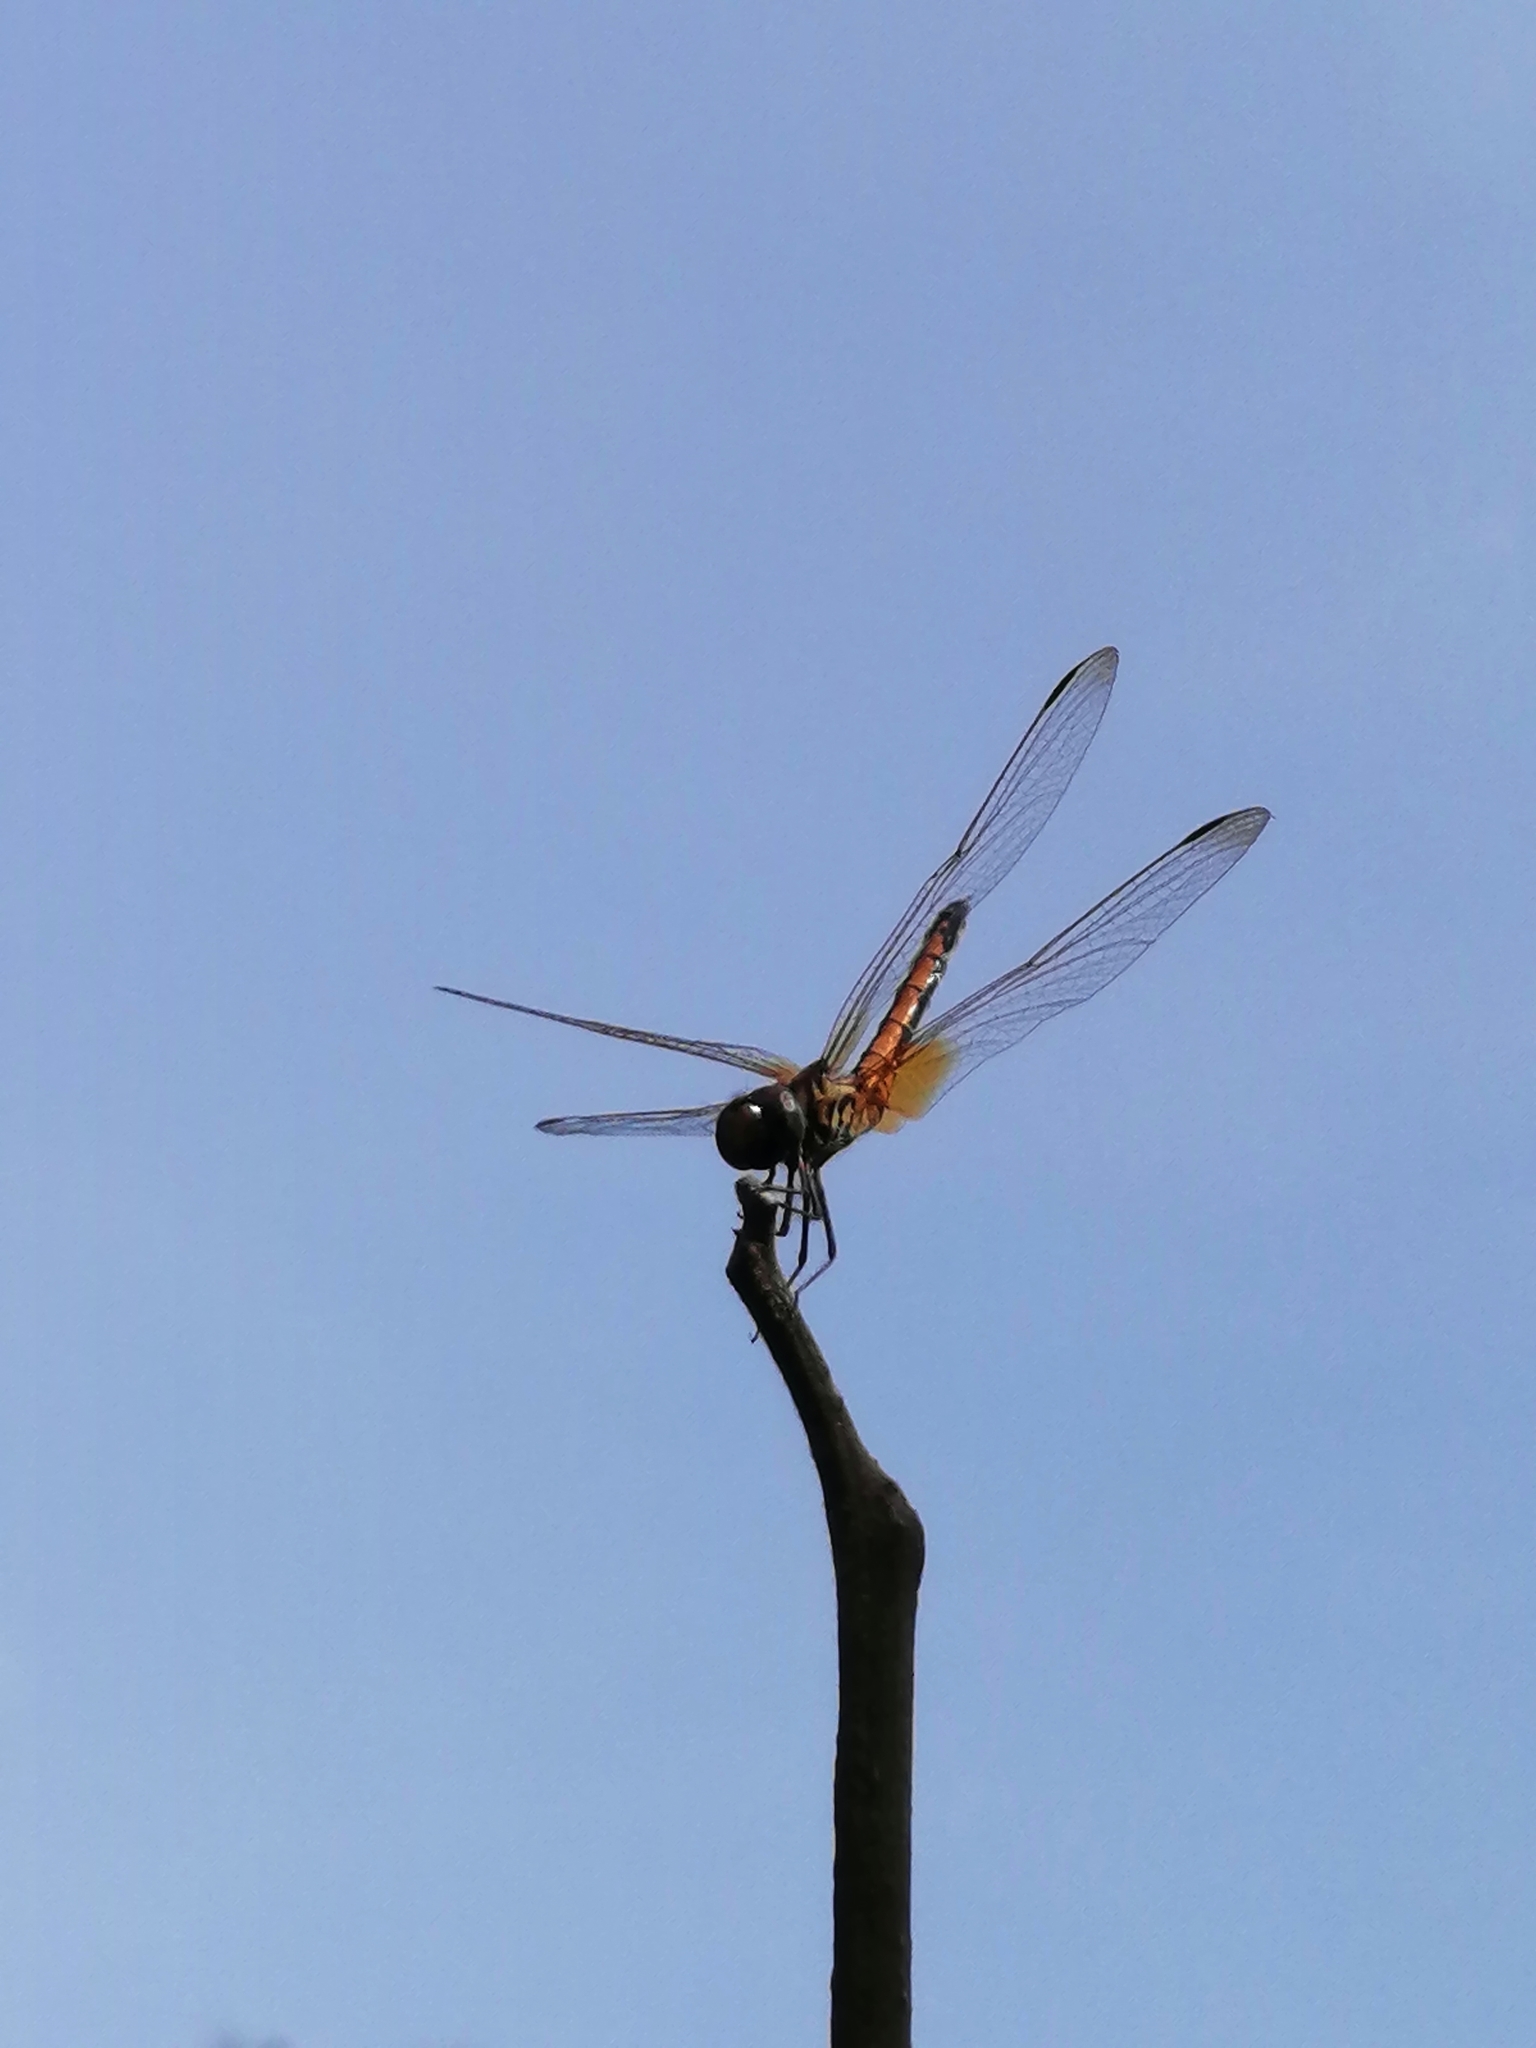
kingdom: Animalia
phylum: Arthropoda
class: Insecta
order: Odonata
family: Libellulidae
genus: Trithemis
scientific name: Trithemis aurora
